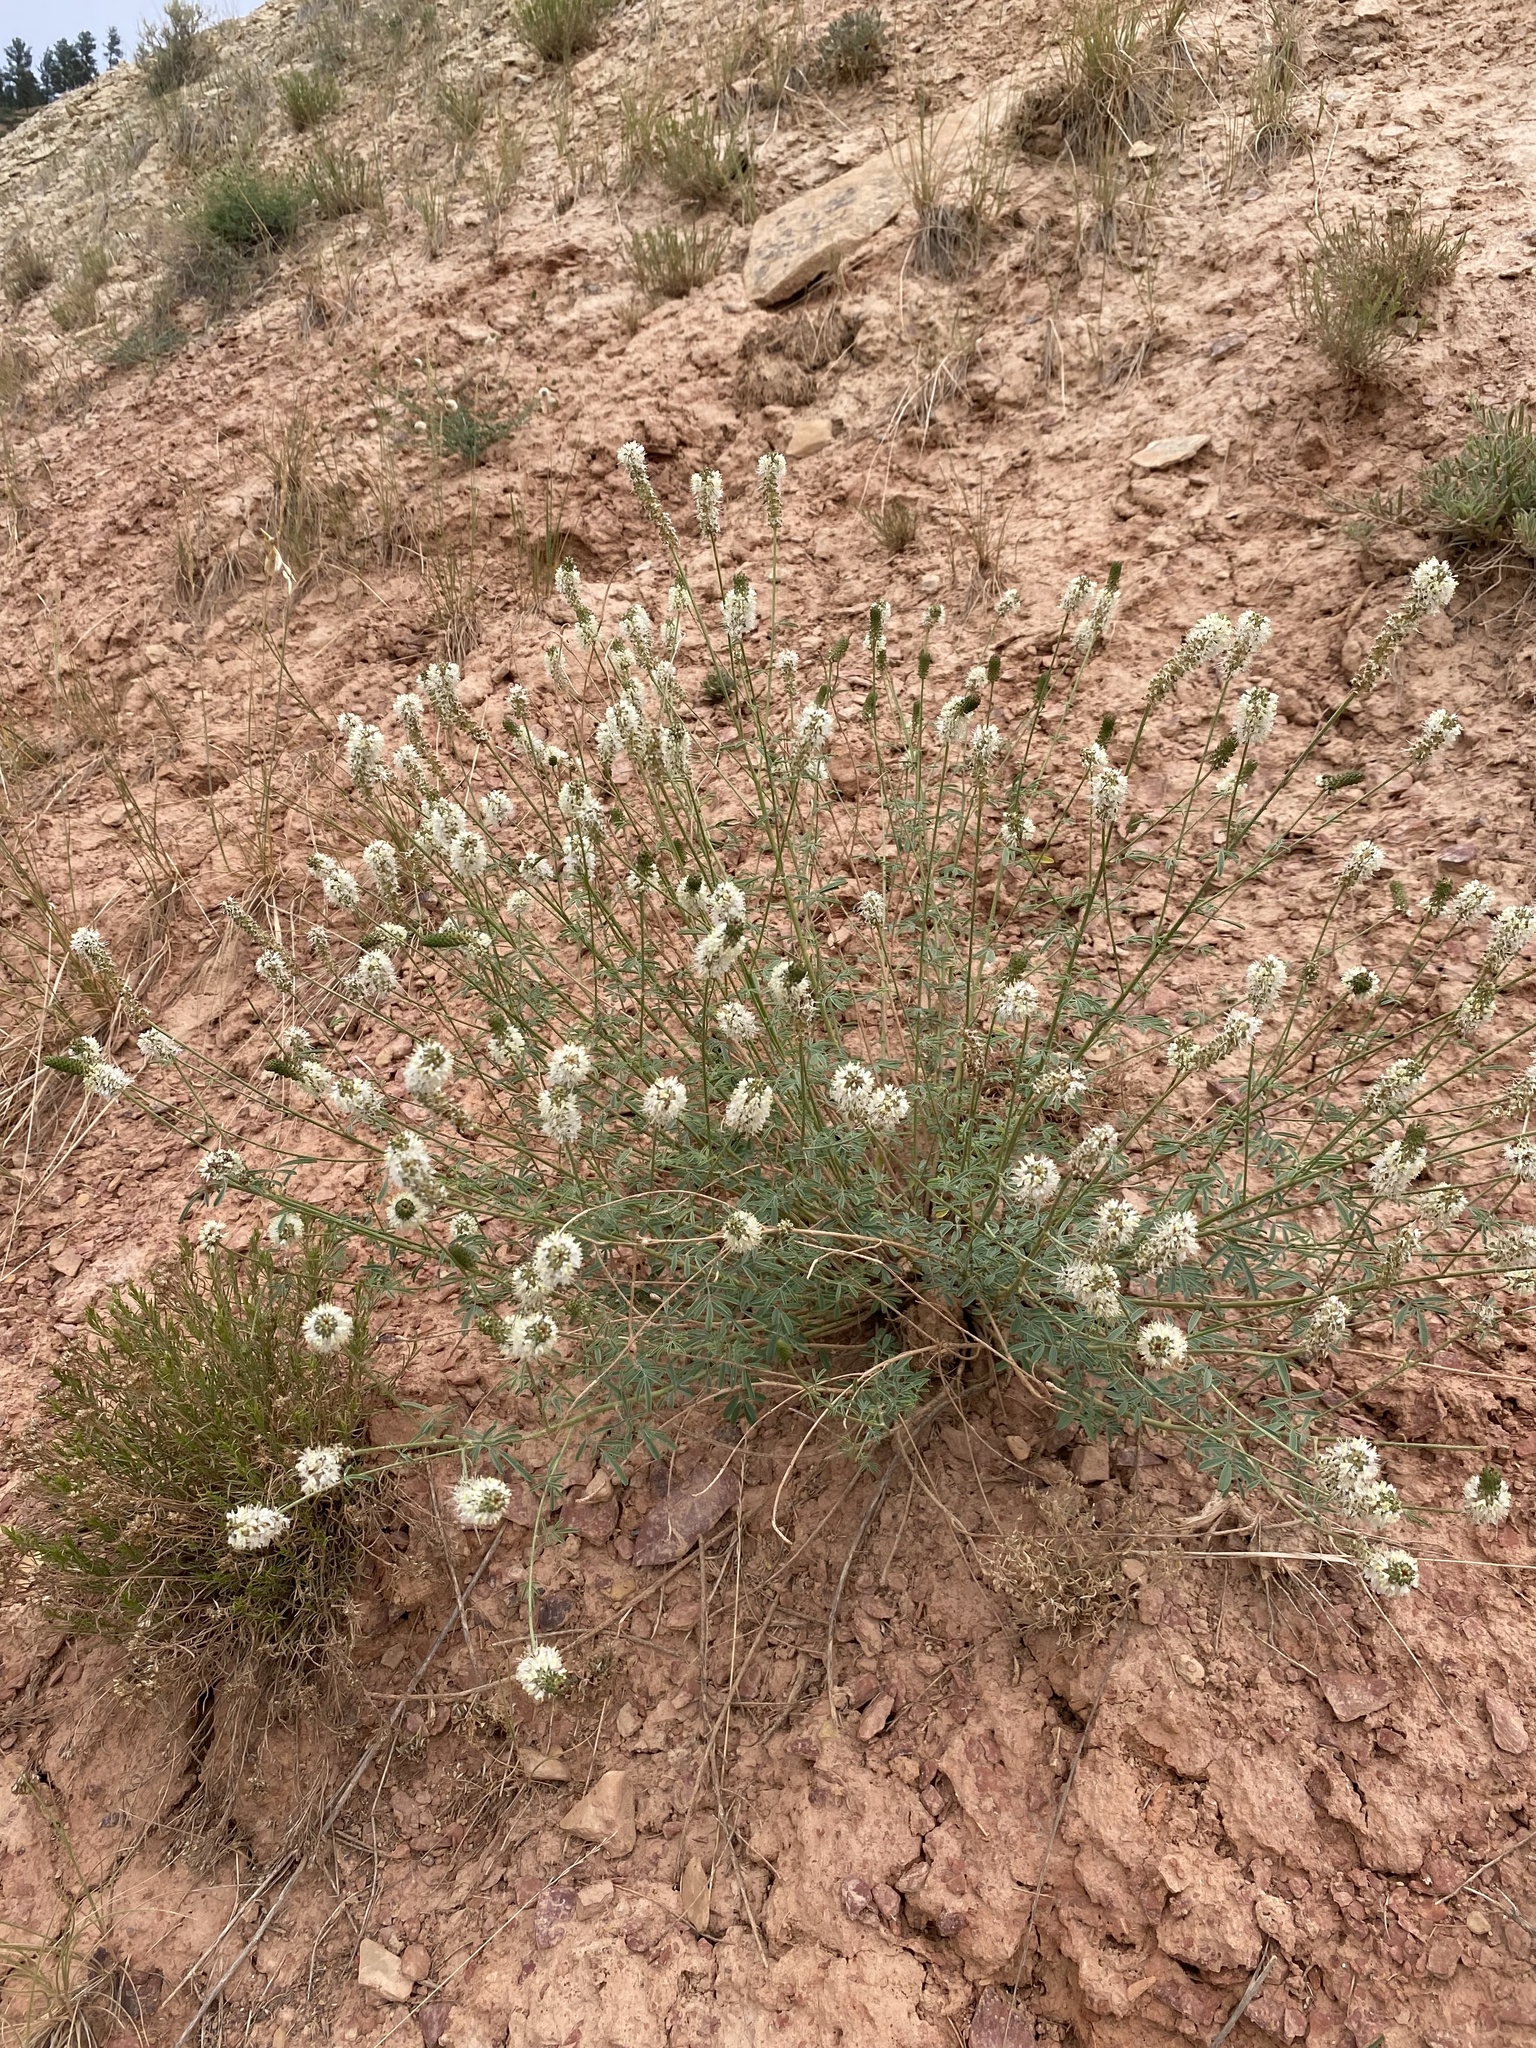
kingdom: Plantae
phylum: Tracheophyta
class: Magnoliopsida
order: Fabales
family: Fabaceae
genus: Dalea
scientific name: Dalea candida
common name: White prairie-clover
